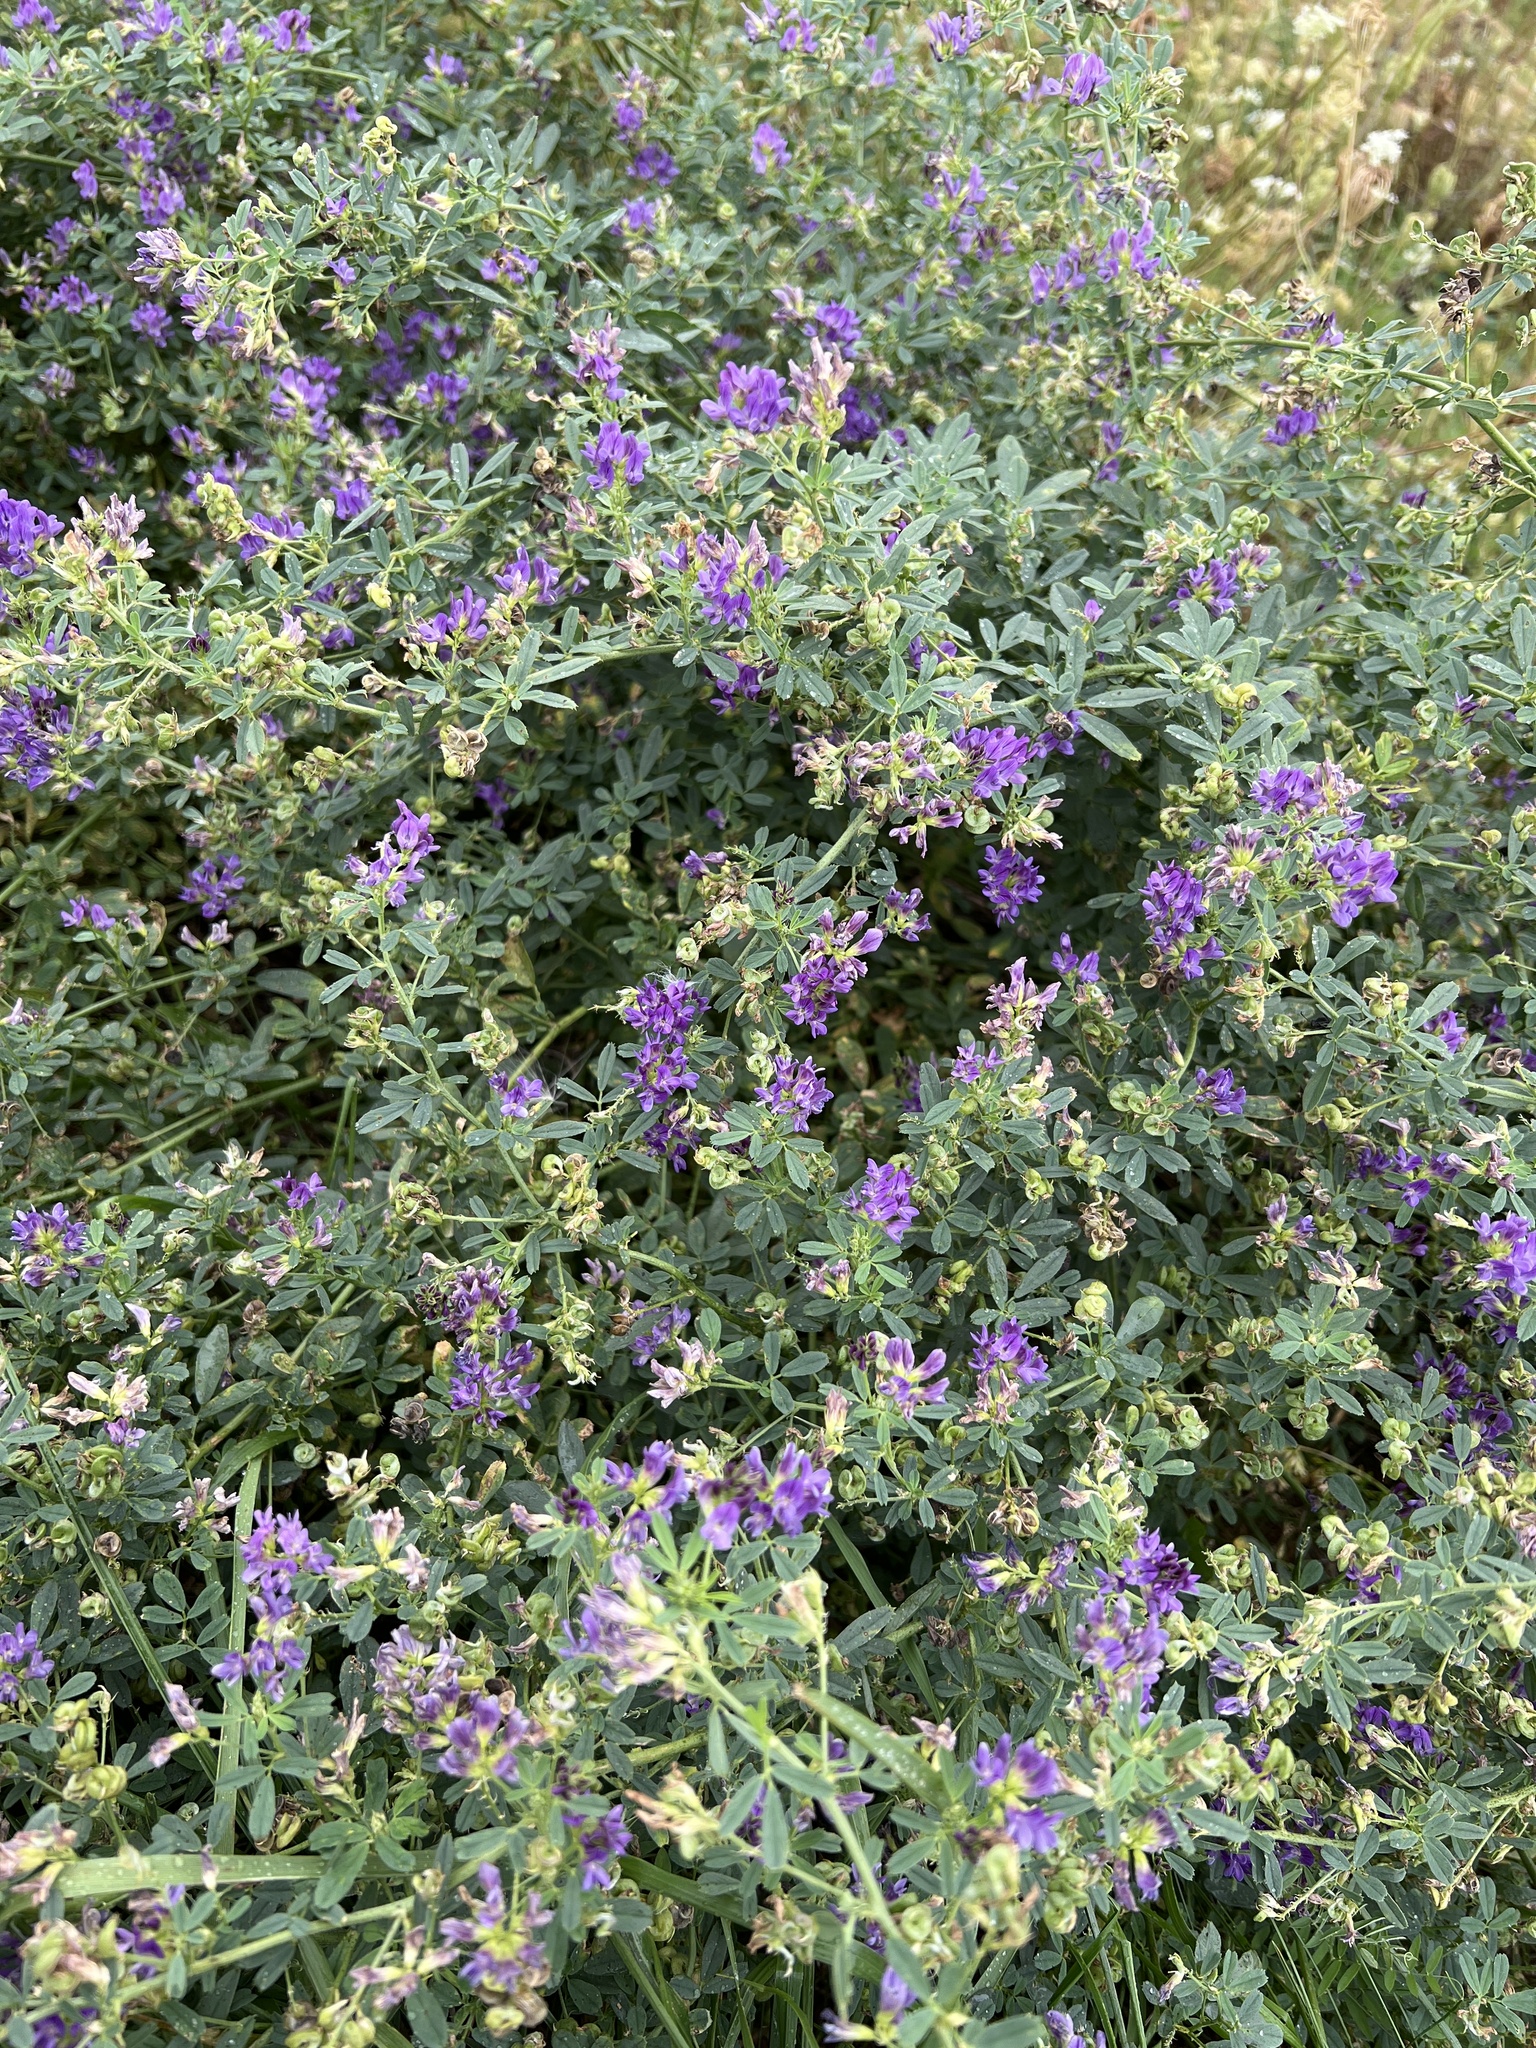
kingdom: Plantae
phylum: Tracheophyta
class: Magnoliopsida
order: Fabales
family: Fabaceae
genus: Medicago
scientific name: Medicago sativa
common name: Alfalfa
